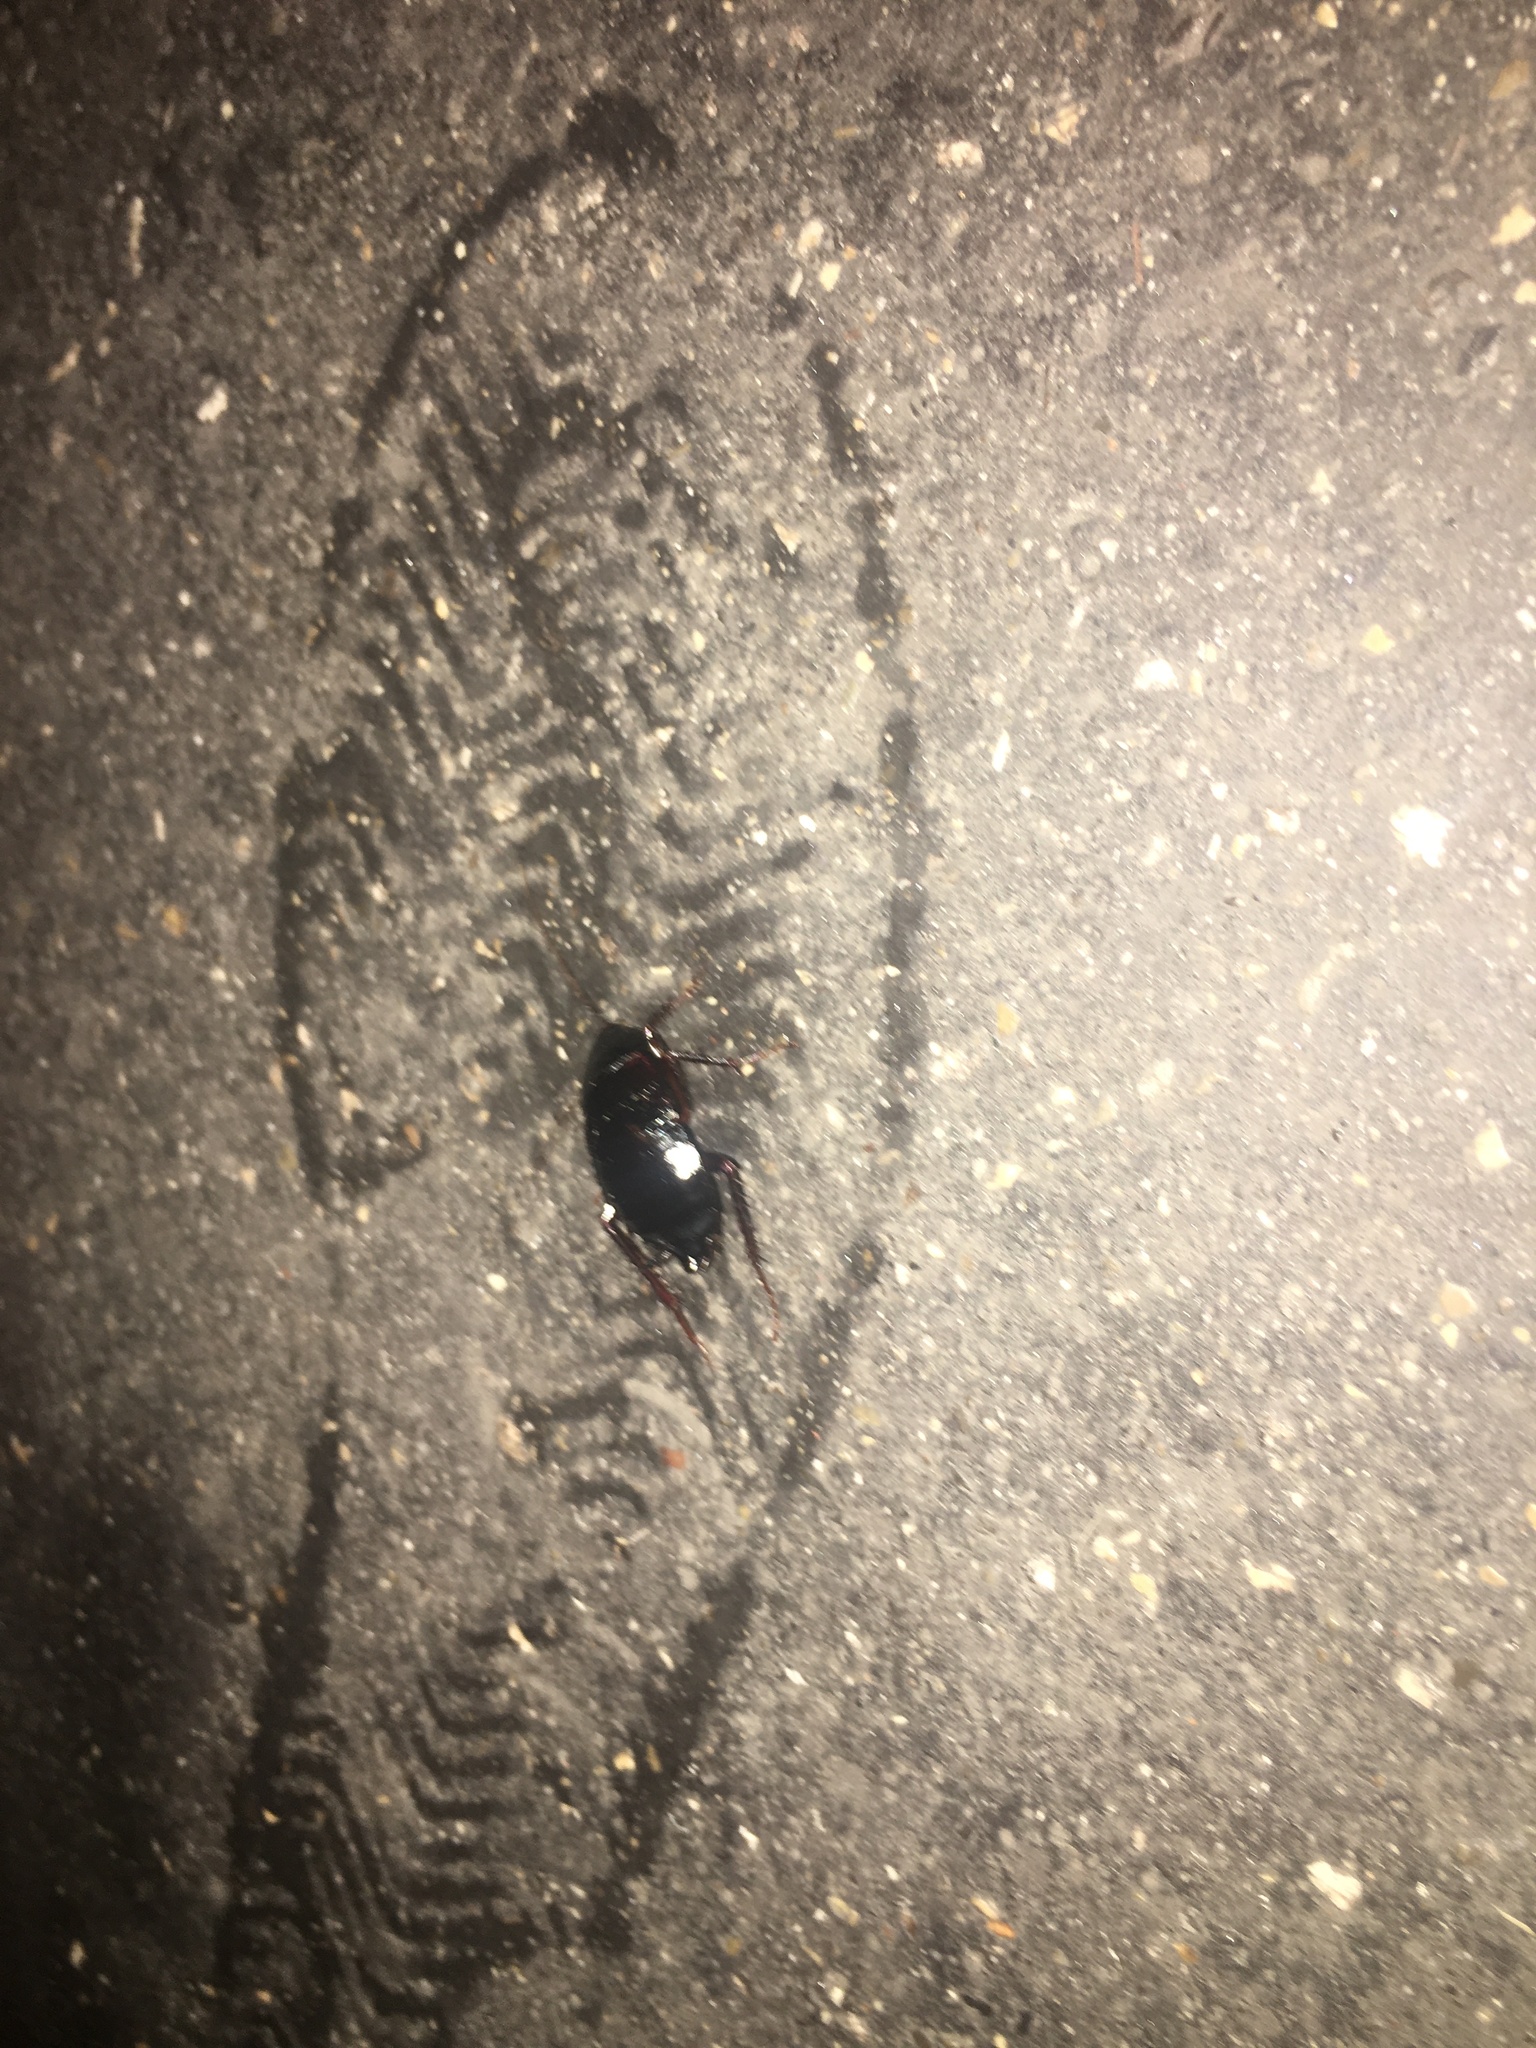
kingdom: Animalia
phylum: Arthropoda
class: Insecta
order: Blattodea
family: Blattidae
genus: Blatta
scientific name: Blatta orientalis
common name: Oriental cockroach
